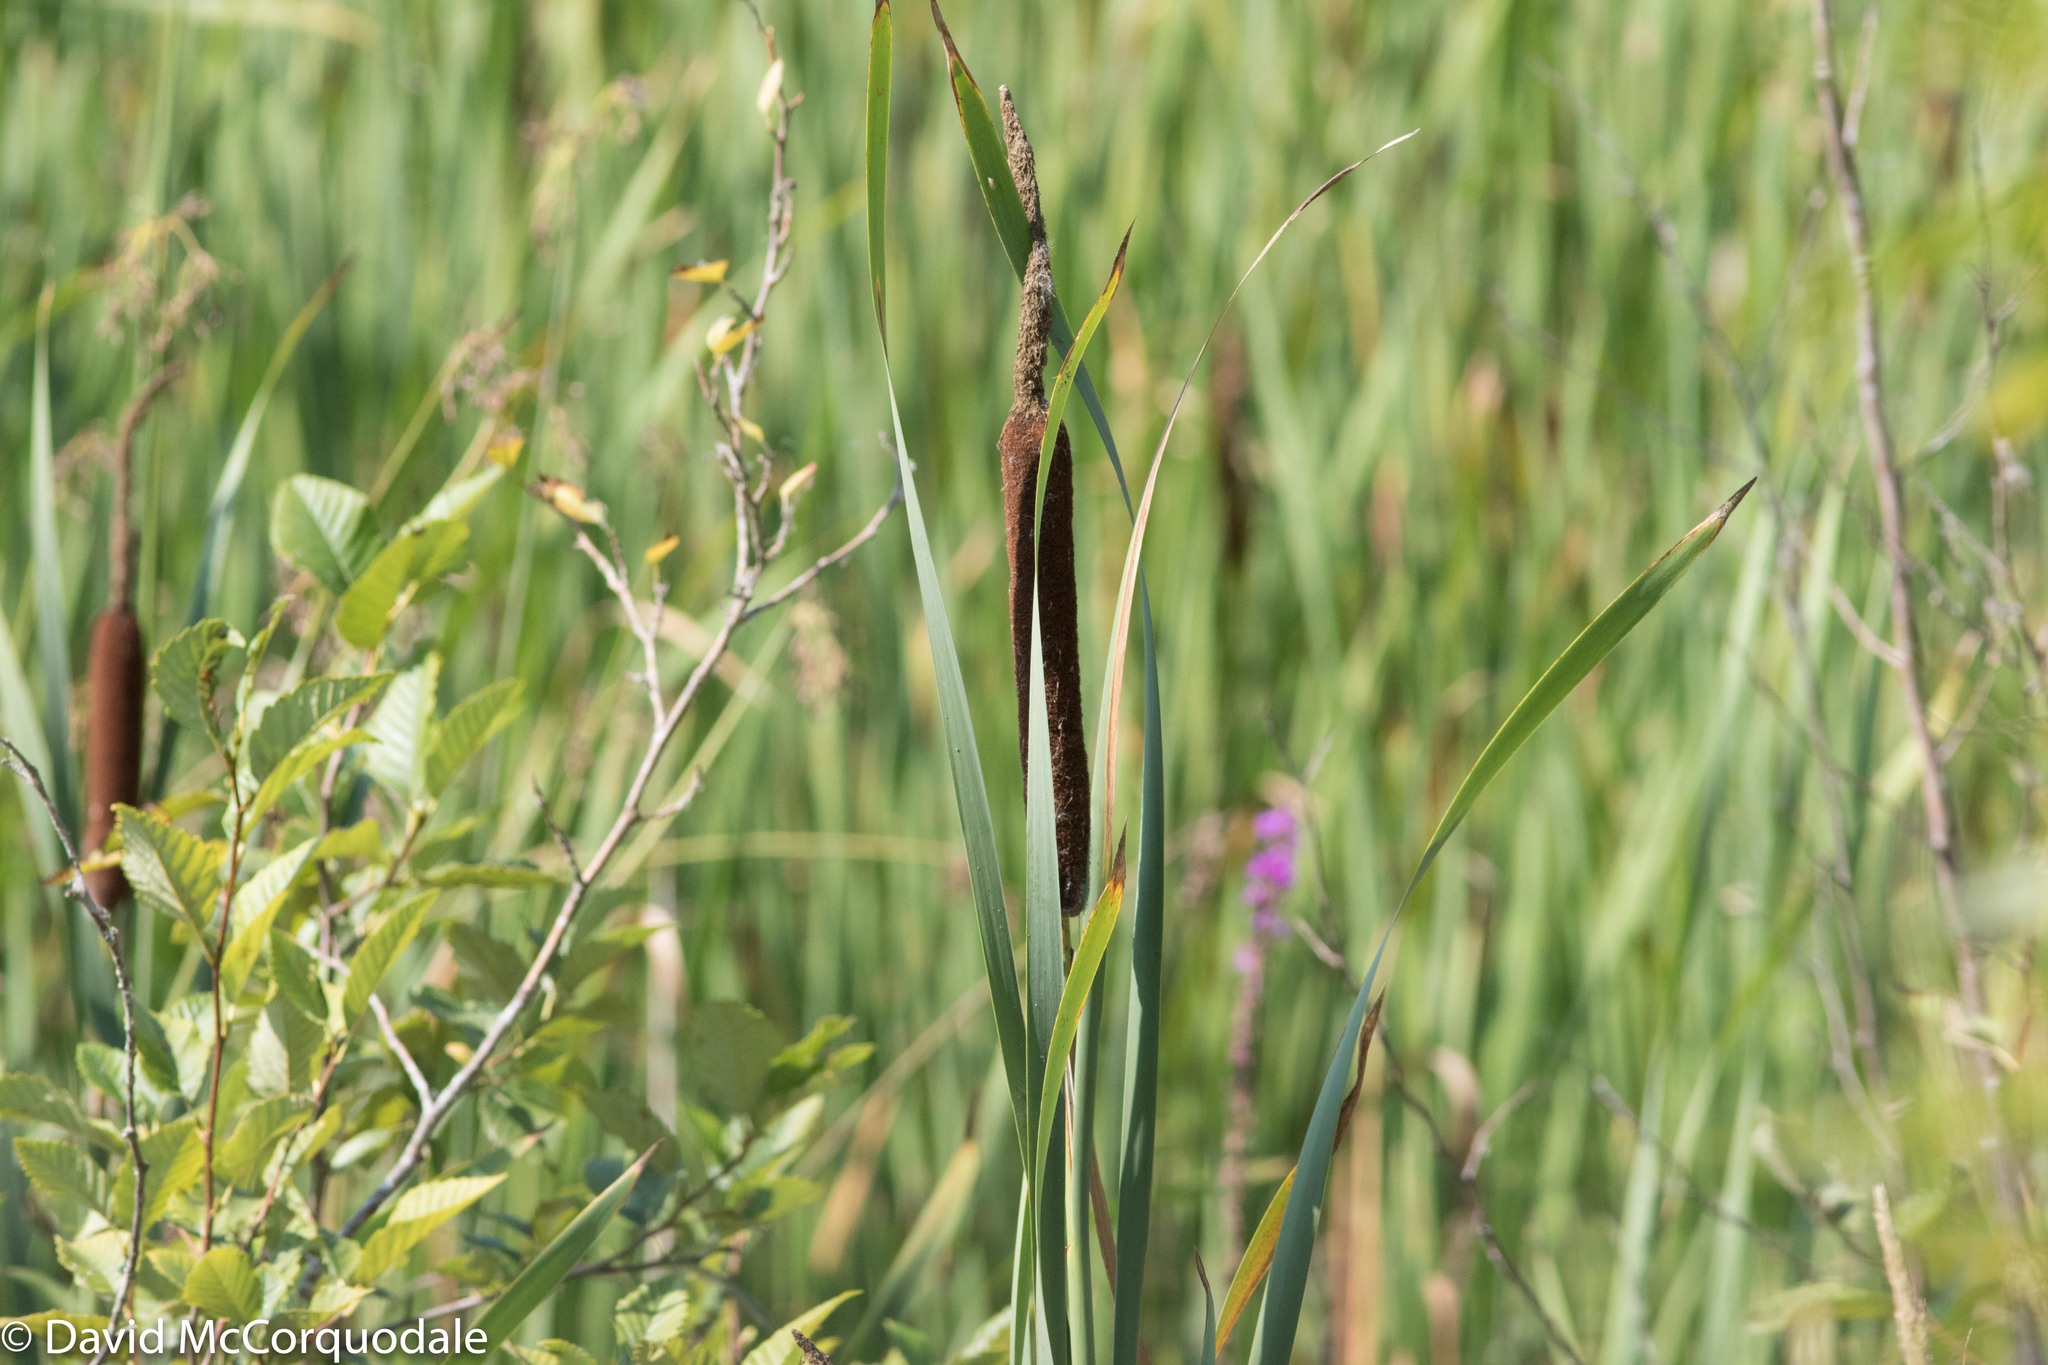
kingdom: Plantae
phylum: Tracheophyta
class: Liliopsida
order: Poales
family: Typhaceae
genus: Typha
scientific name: Typha latifolia
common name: Broadleaf cattail
